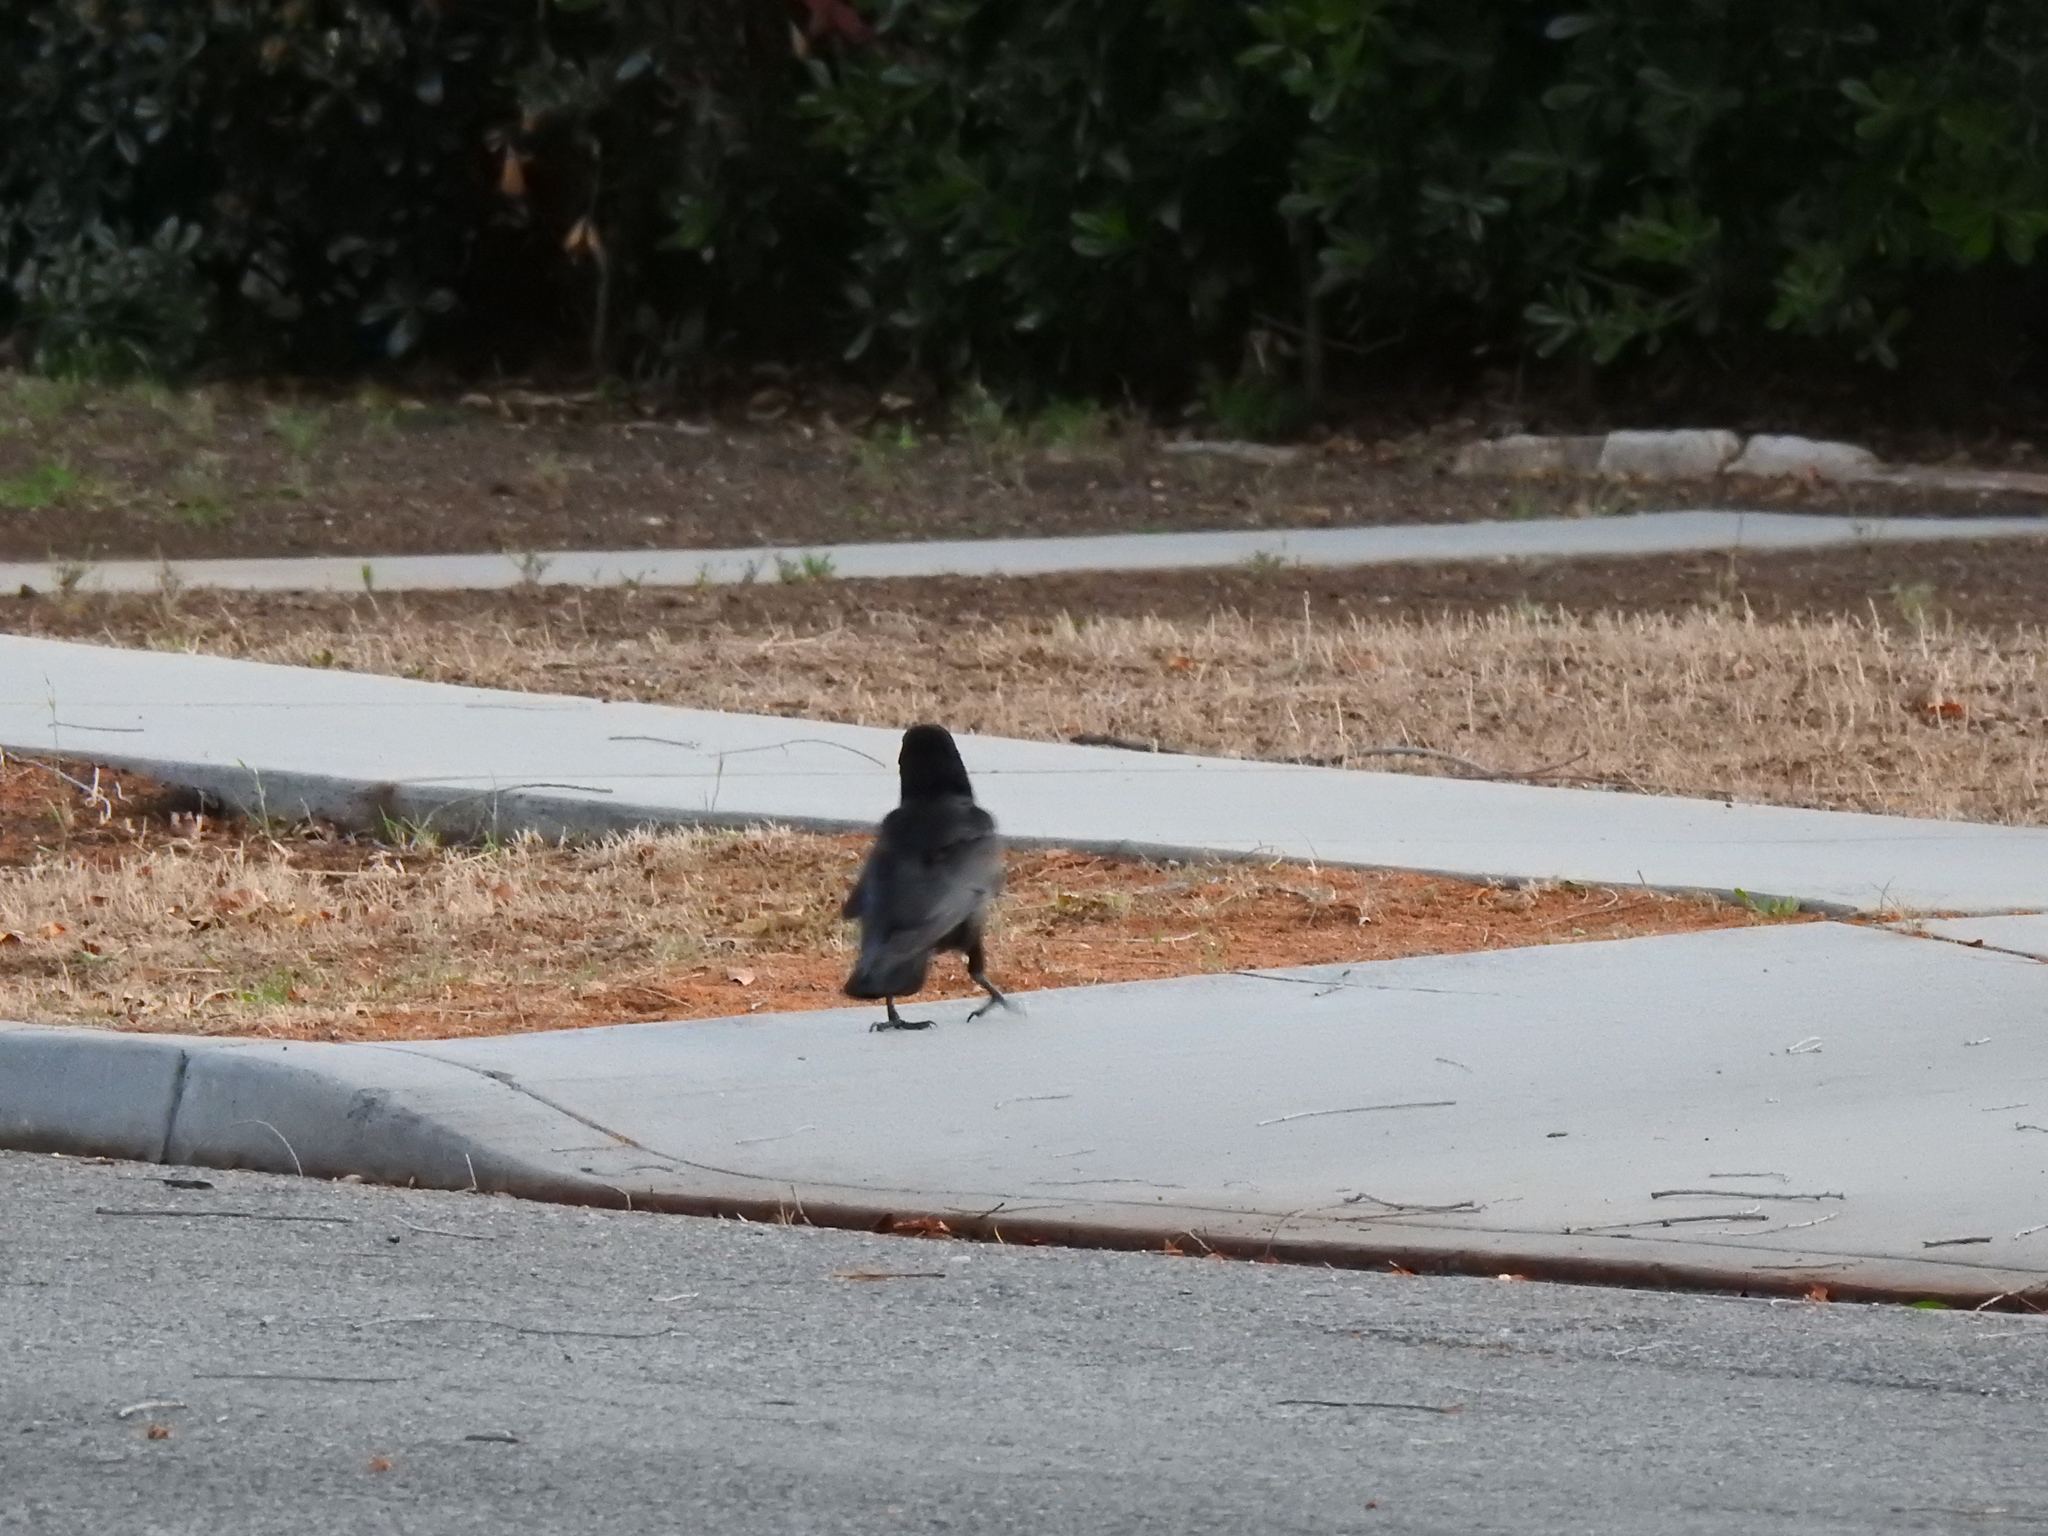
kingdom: Animalia
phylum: Chordata
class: Aves
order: Passeriformes
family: Corvidae
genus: Corvus
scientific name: Corvus brachyrhynchos
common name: American crow
